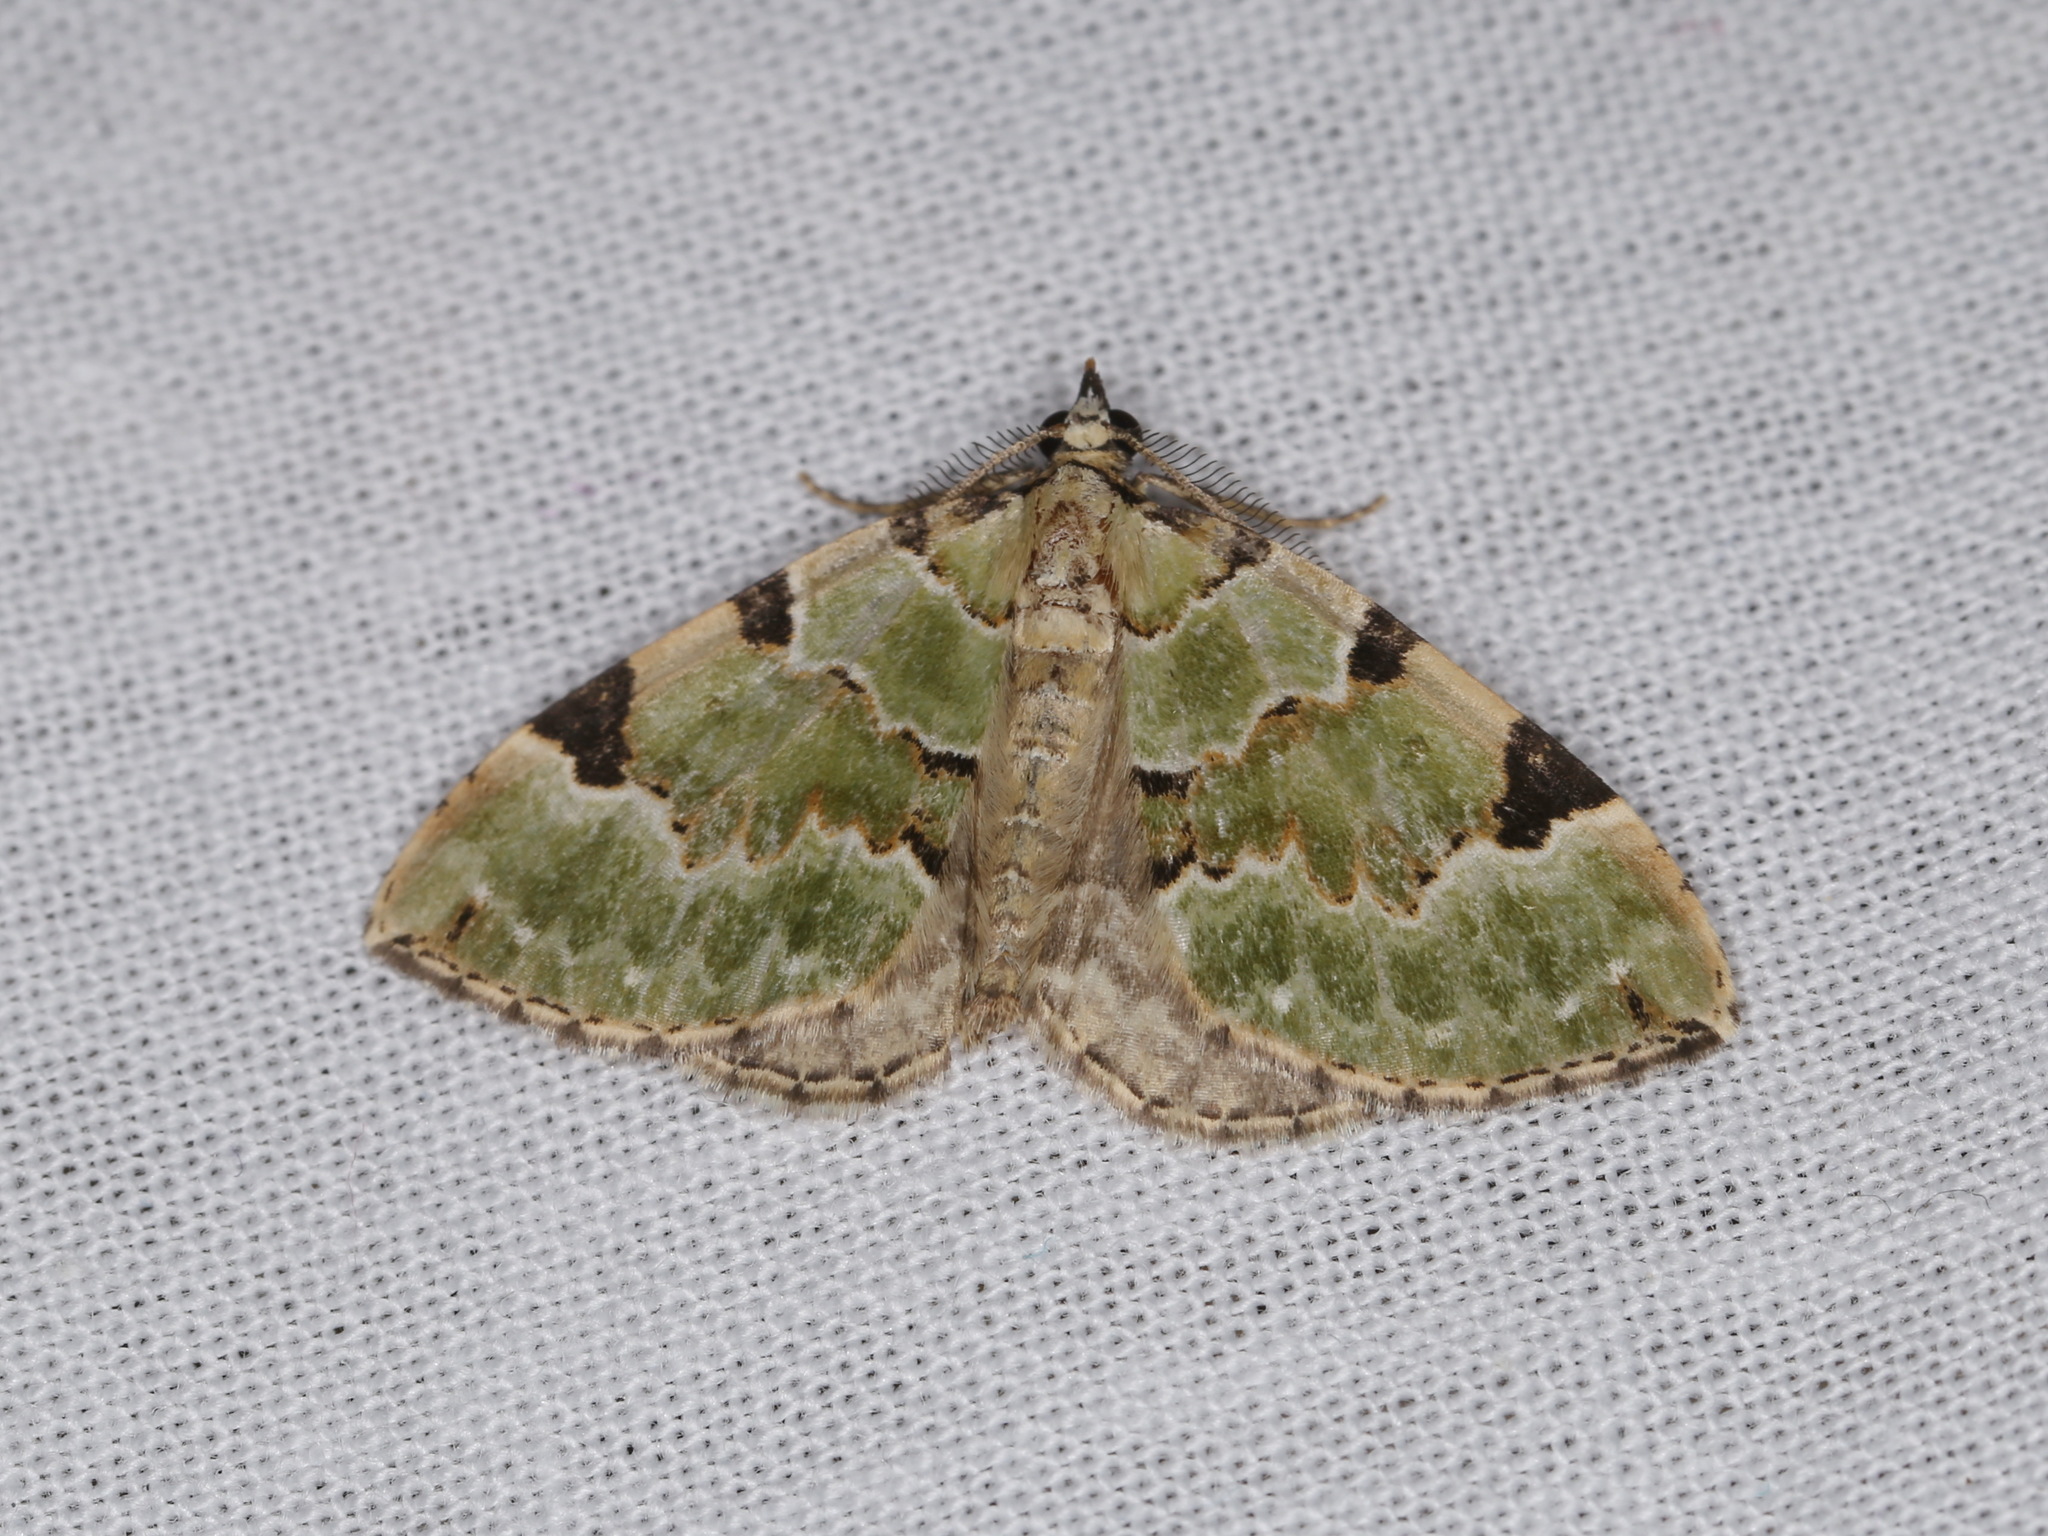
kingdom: Animalia
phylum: Arthropoda
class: Insecta
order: Lepidoptera
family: Geometridae
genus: Colostygia
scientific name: Colostygia pectinataria
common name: Green carpet
